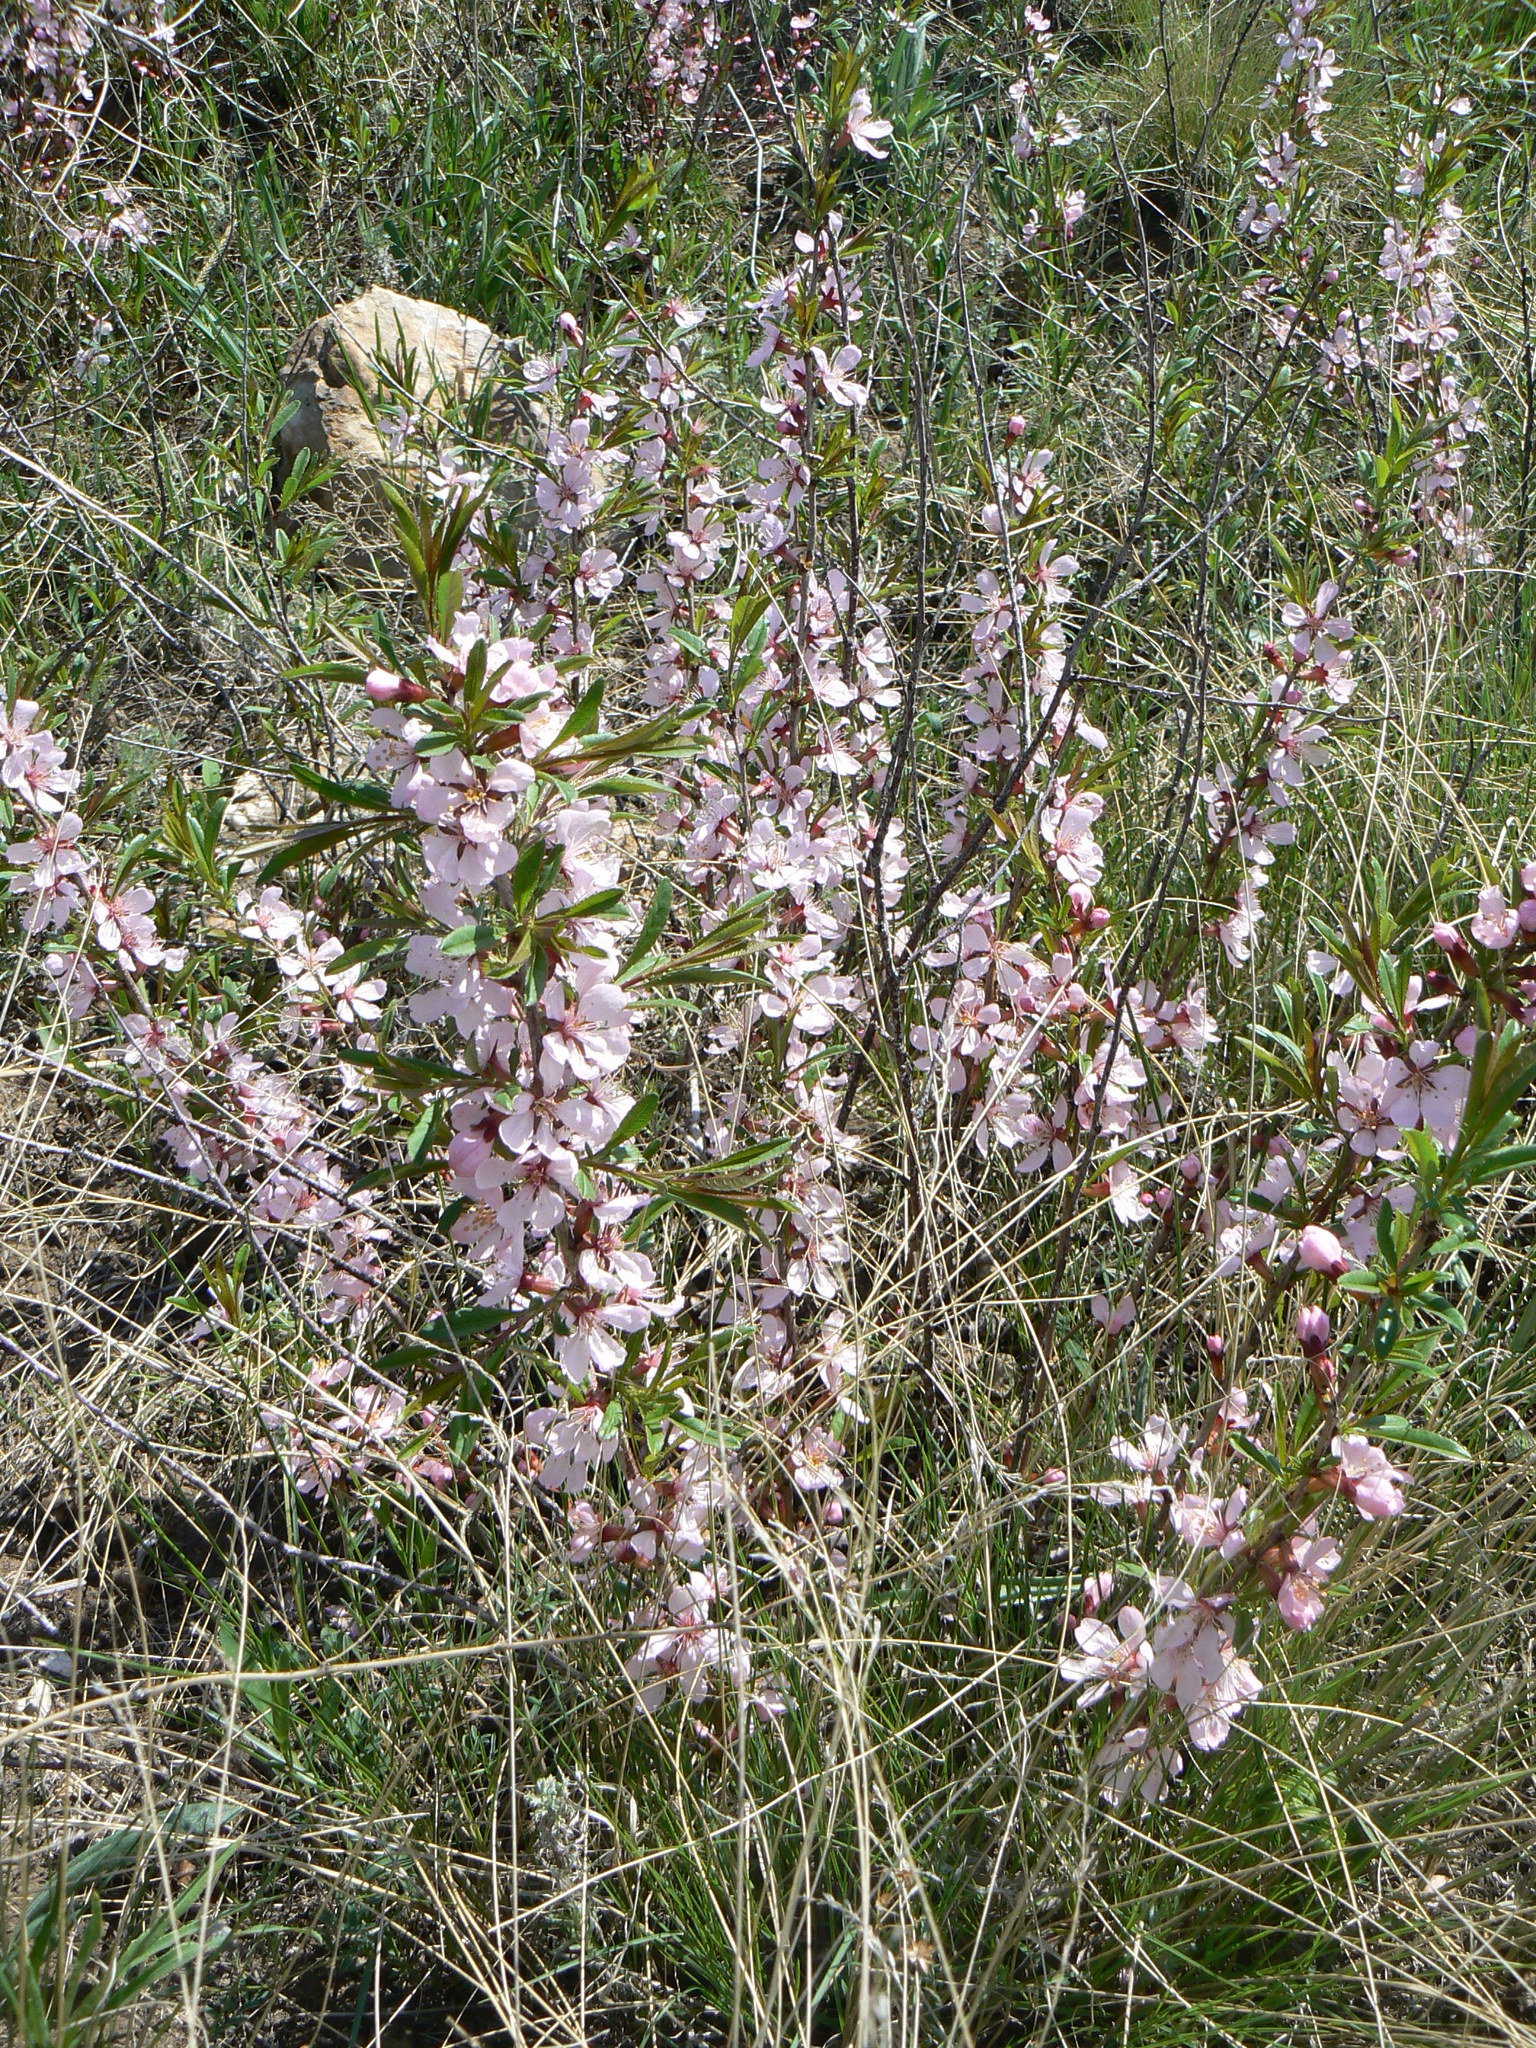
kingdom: Plantae
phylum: Tracheophyta
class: Magnoliopsida
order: Rosales
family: Rosaceae
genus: Prunus
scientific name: Prunus tenella
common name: Dwarf russian almond
